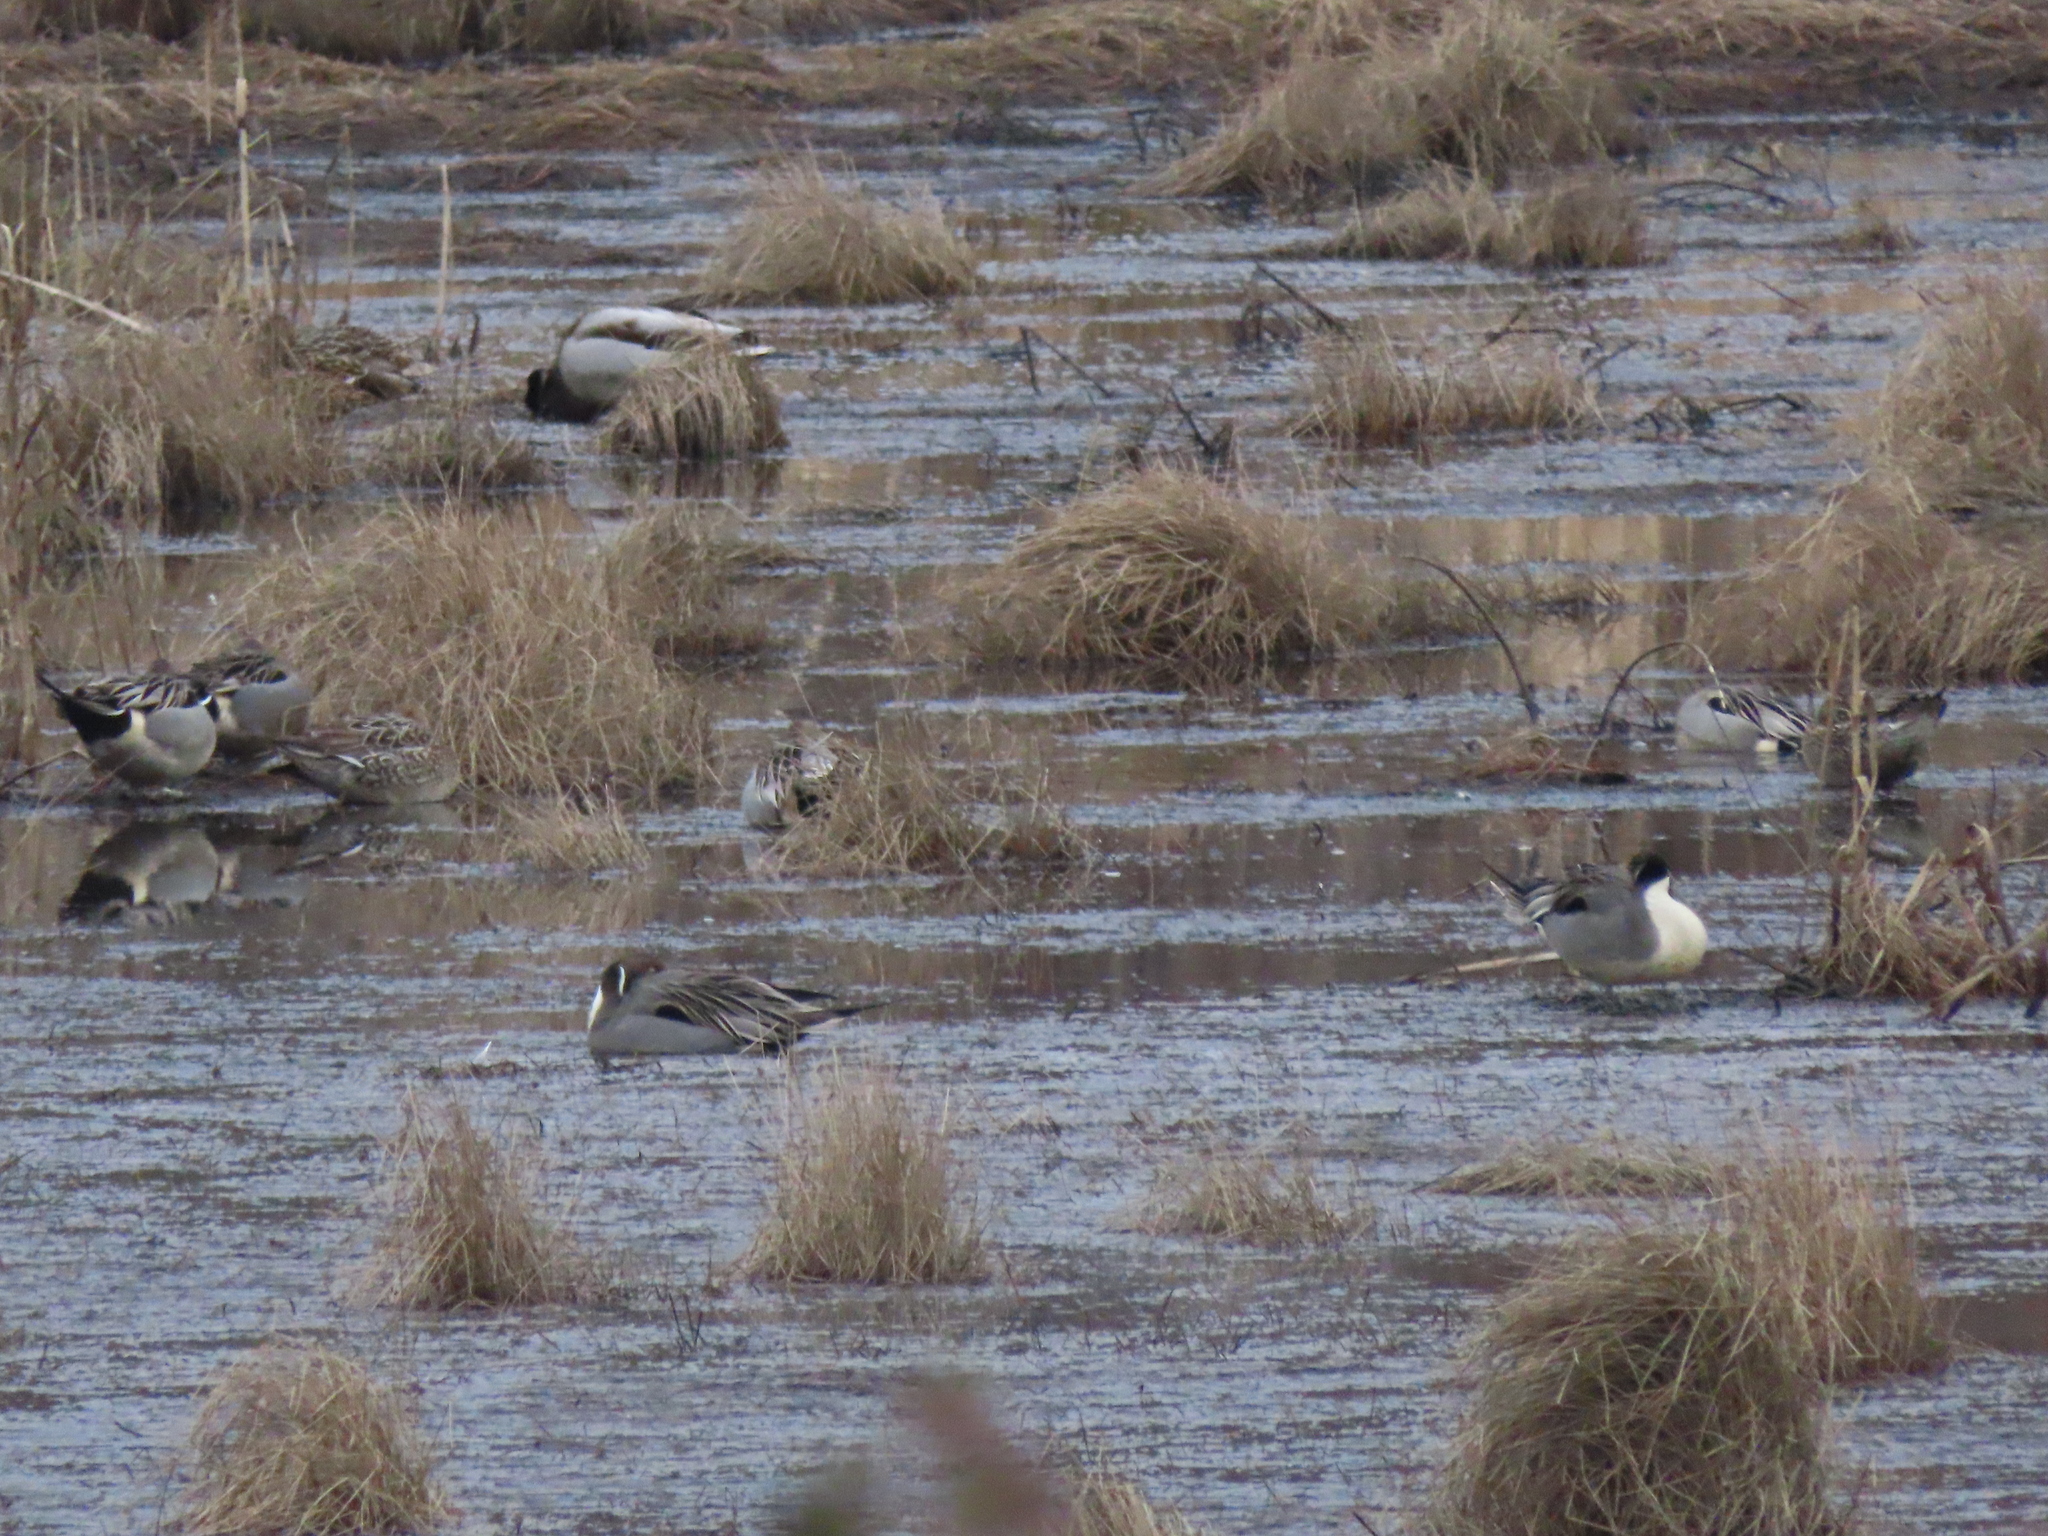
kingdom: Animalia
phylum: Chordata
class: Aves
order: Anseriformes
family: Anatidae
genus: Anas
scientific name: Anas acuta
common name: Northern pintail
